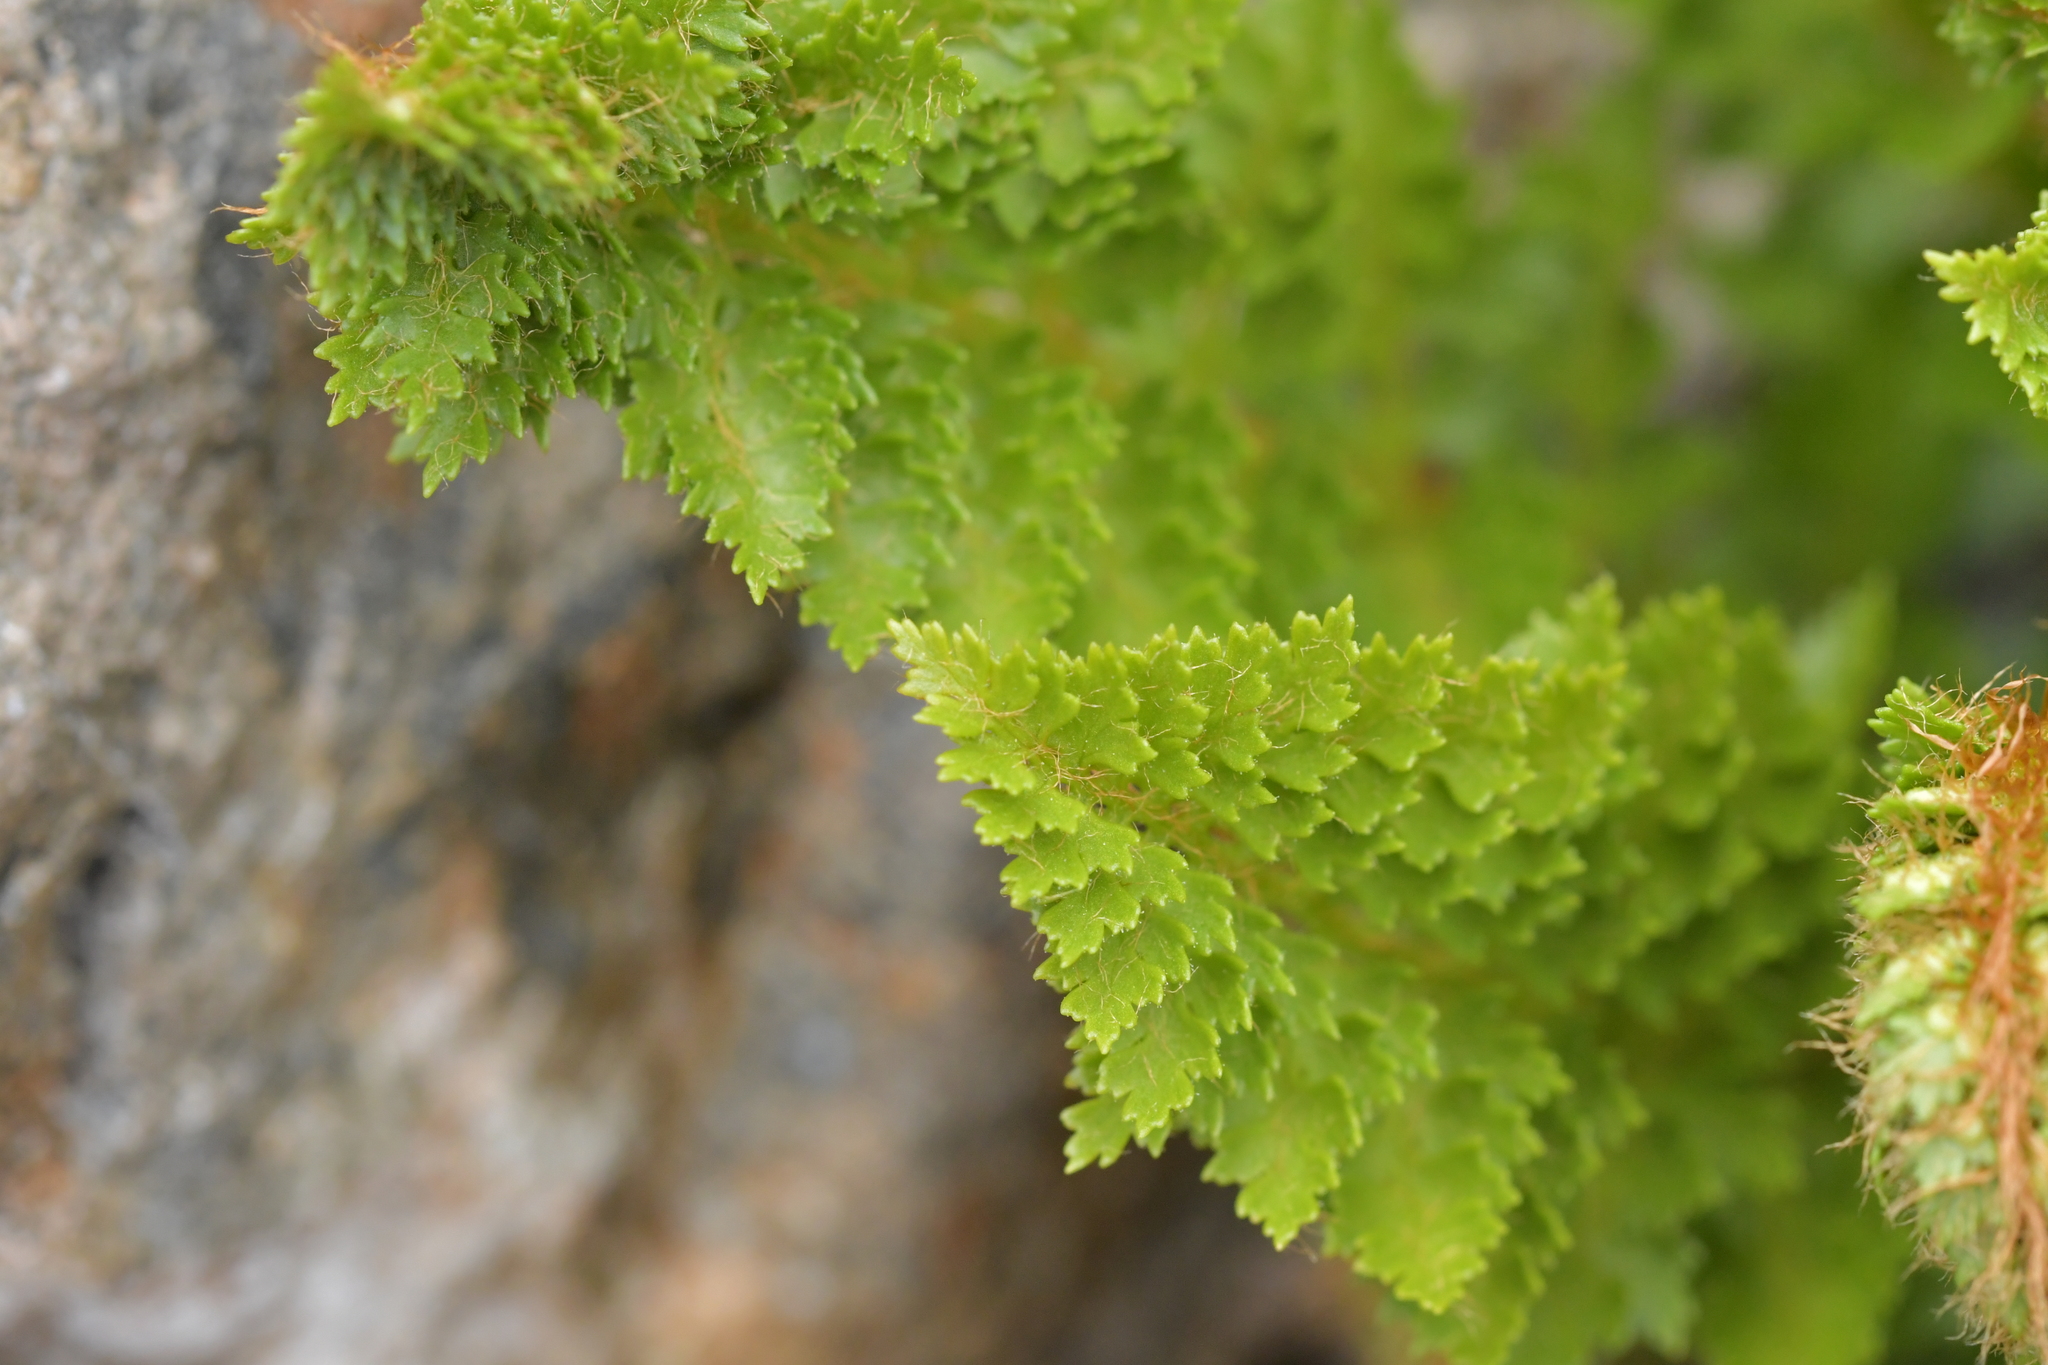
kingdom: Plantae
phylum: Tracheophyta
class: Polypodiopsida
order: Polypodiales
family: Dryopteridaceae
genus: Polystichum
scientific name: Polystichum cystostegia
